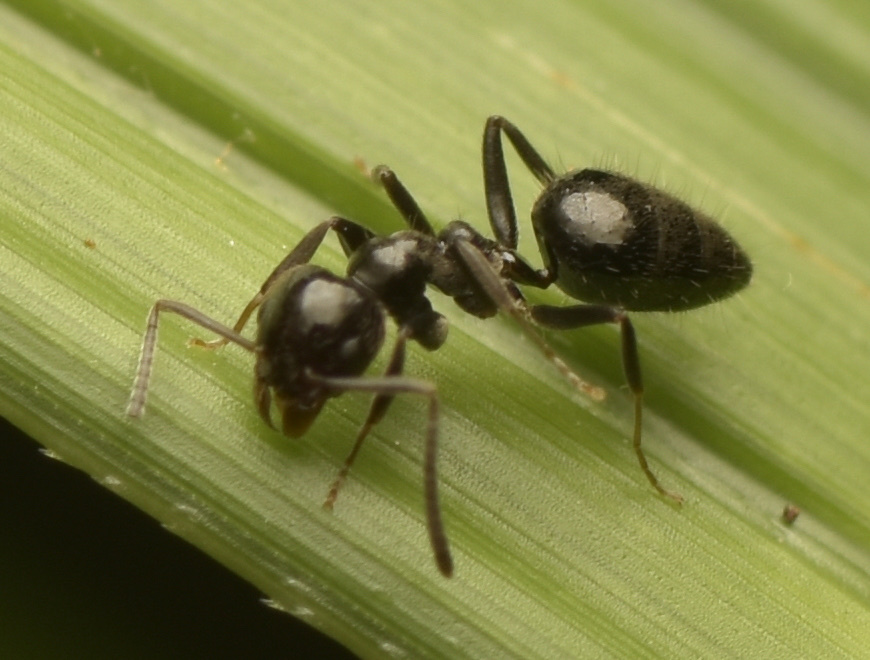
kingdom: Animalia
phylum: Arthropoda
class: Insecta
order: Hymenoptera
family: Formicidae
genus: Technomyrmex
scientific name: Technomyrmex sophiae
